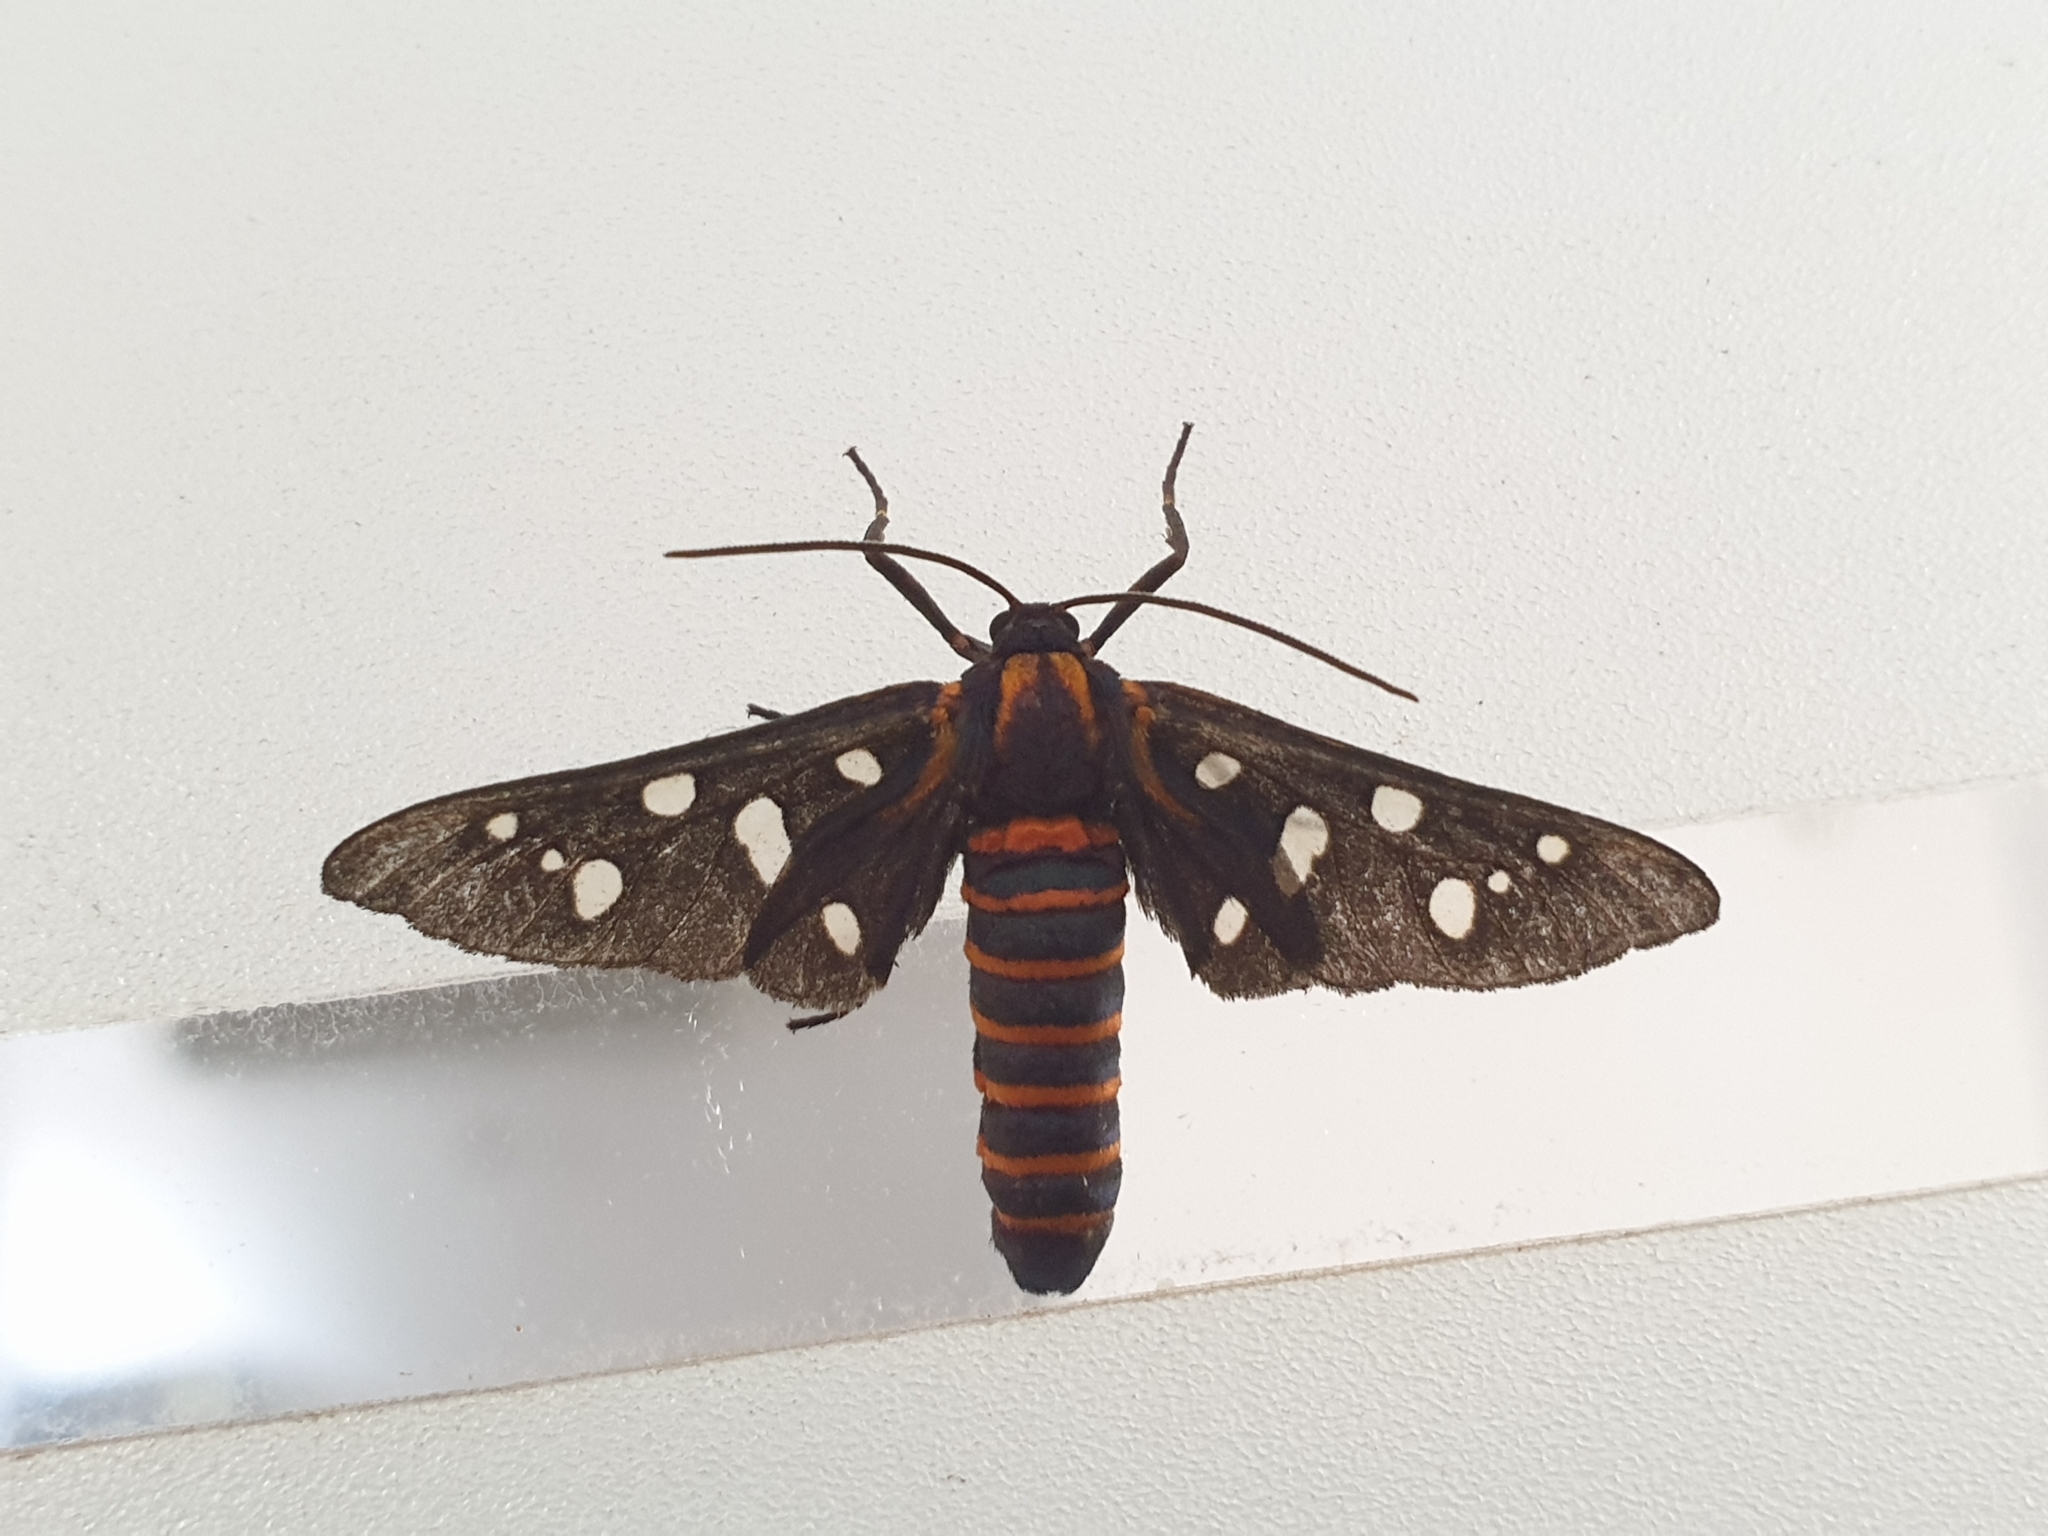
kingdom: Animalia
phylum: Arthropoda
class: Insecta
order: Lepidoptera
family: Erebidae
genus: Amata
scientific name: Amata passalis
